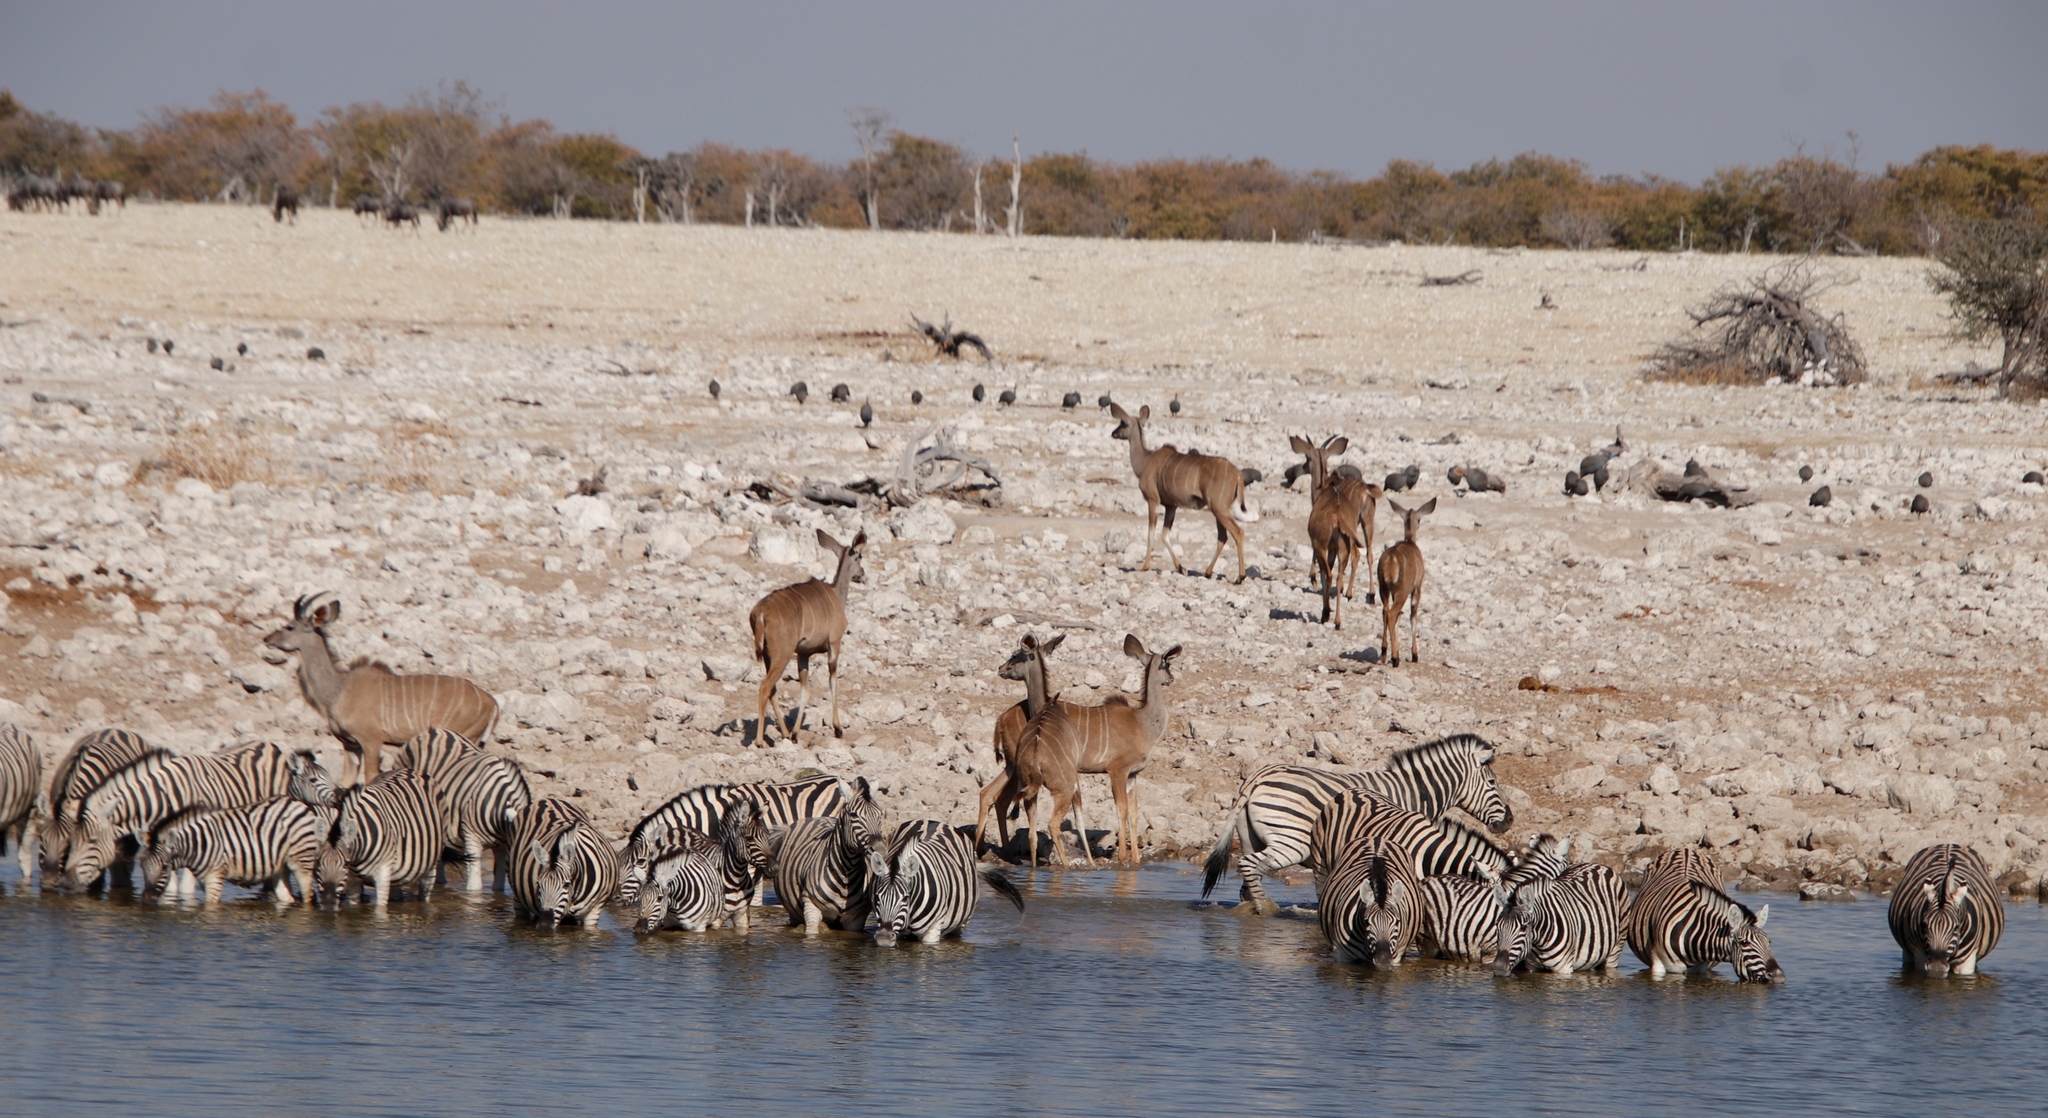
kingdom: Animalia
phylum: Chordata
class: Mammalia
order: Artiodactyla
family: Bovidae
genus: Tragelaphus
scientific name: Tragelaphus strepsiceros
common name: Greater kudu
